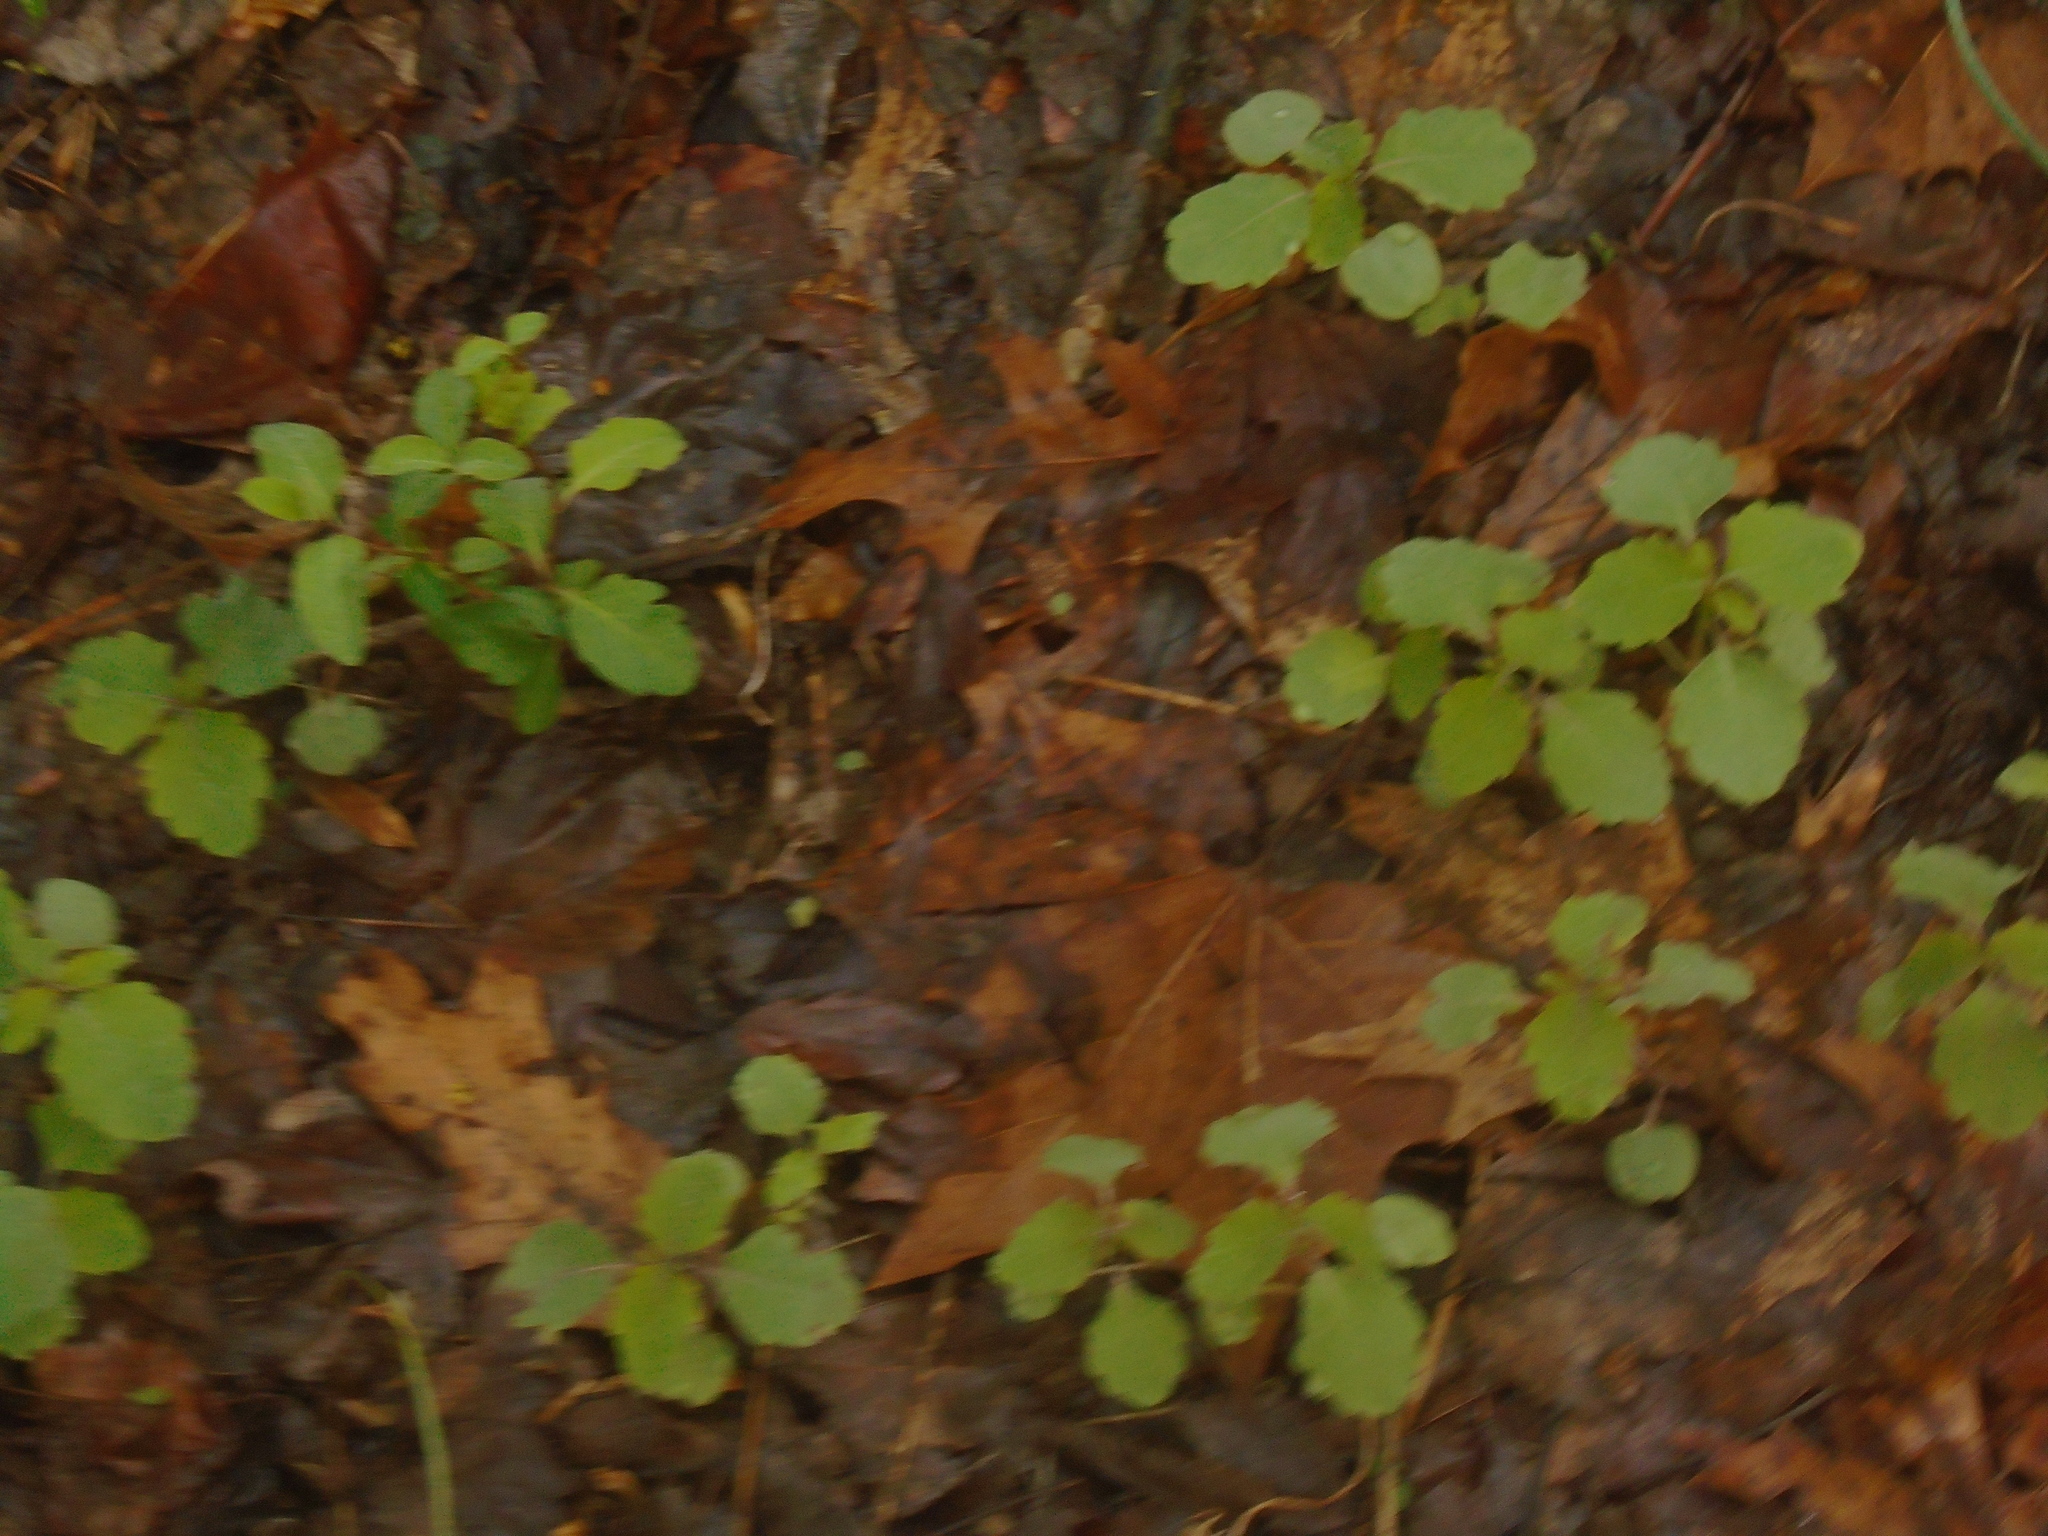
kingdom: Plantae
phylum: Tracheophyta
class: Magnoliopsida
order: Ericales
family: Balsaminaceae
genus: Impatiens
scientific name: Impatiens capensis
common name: Orange balsam
